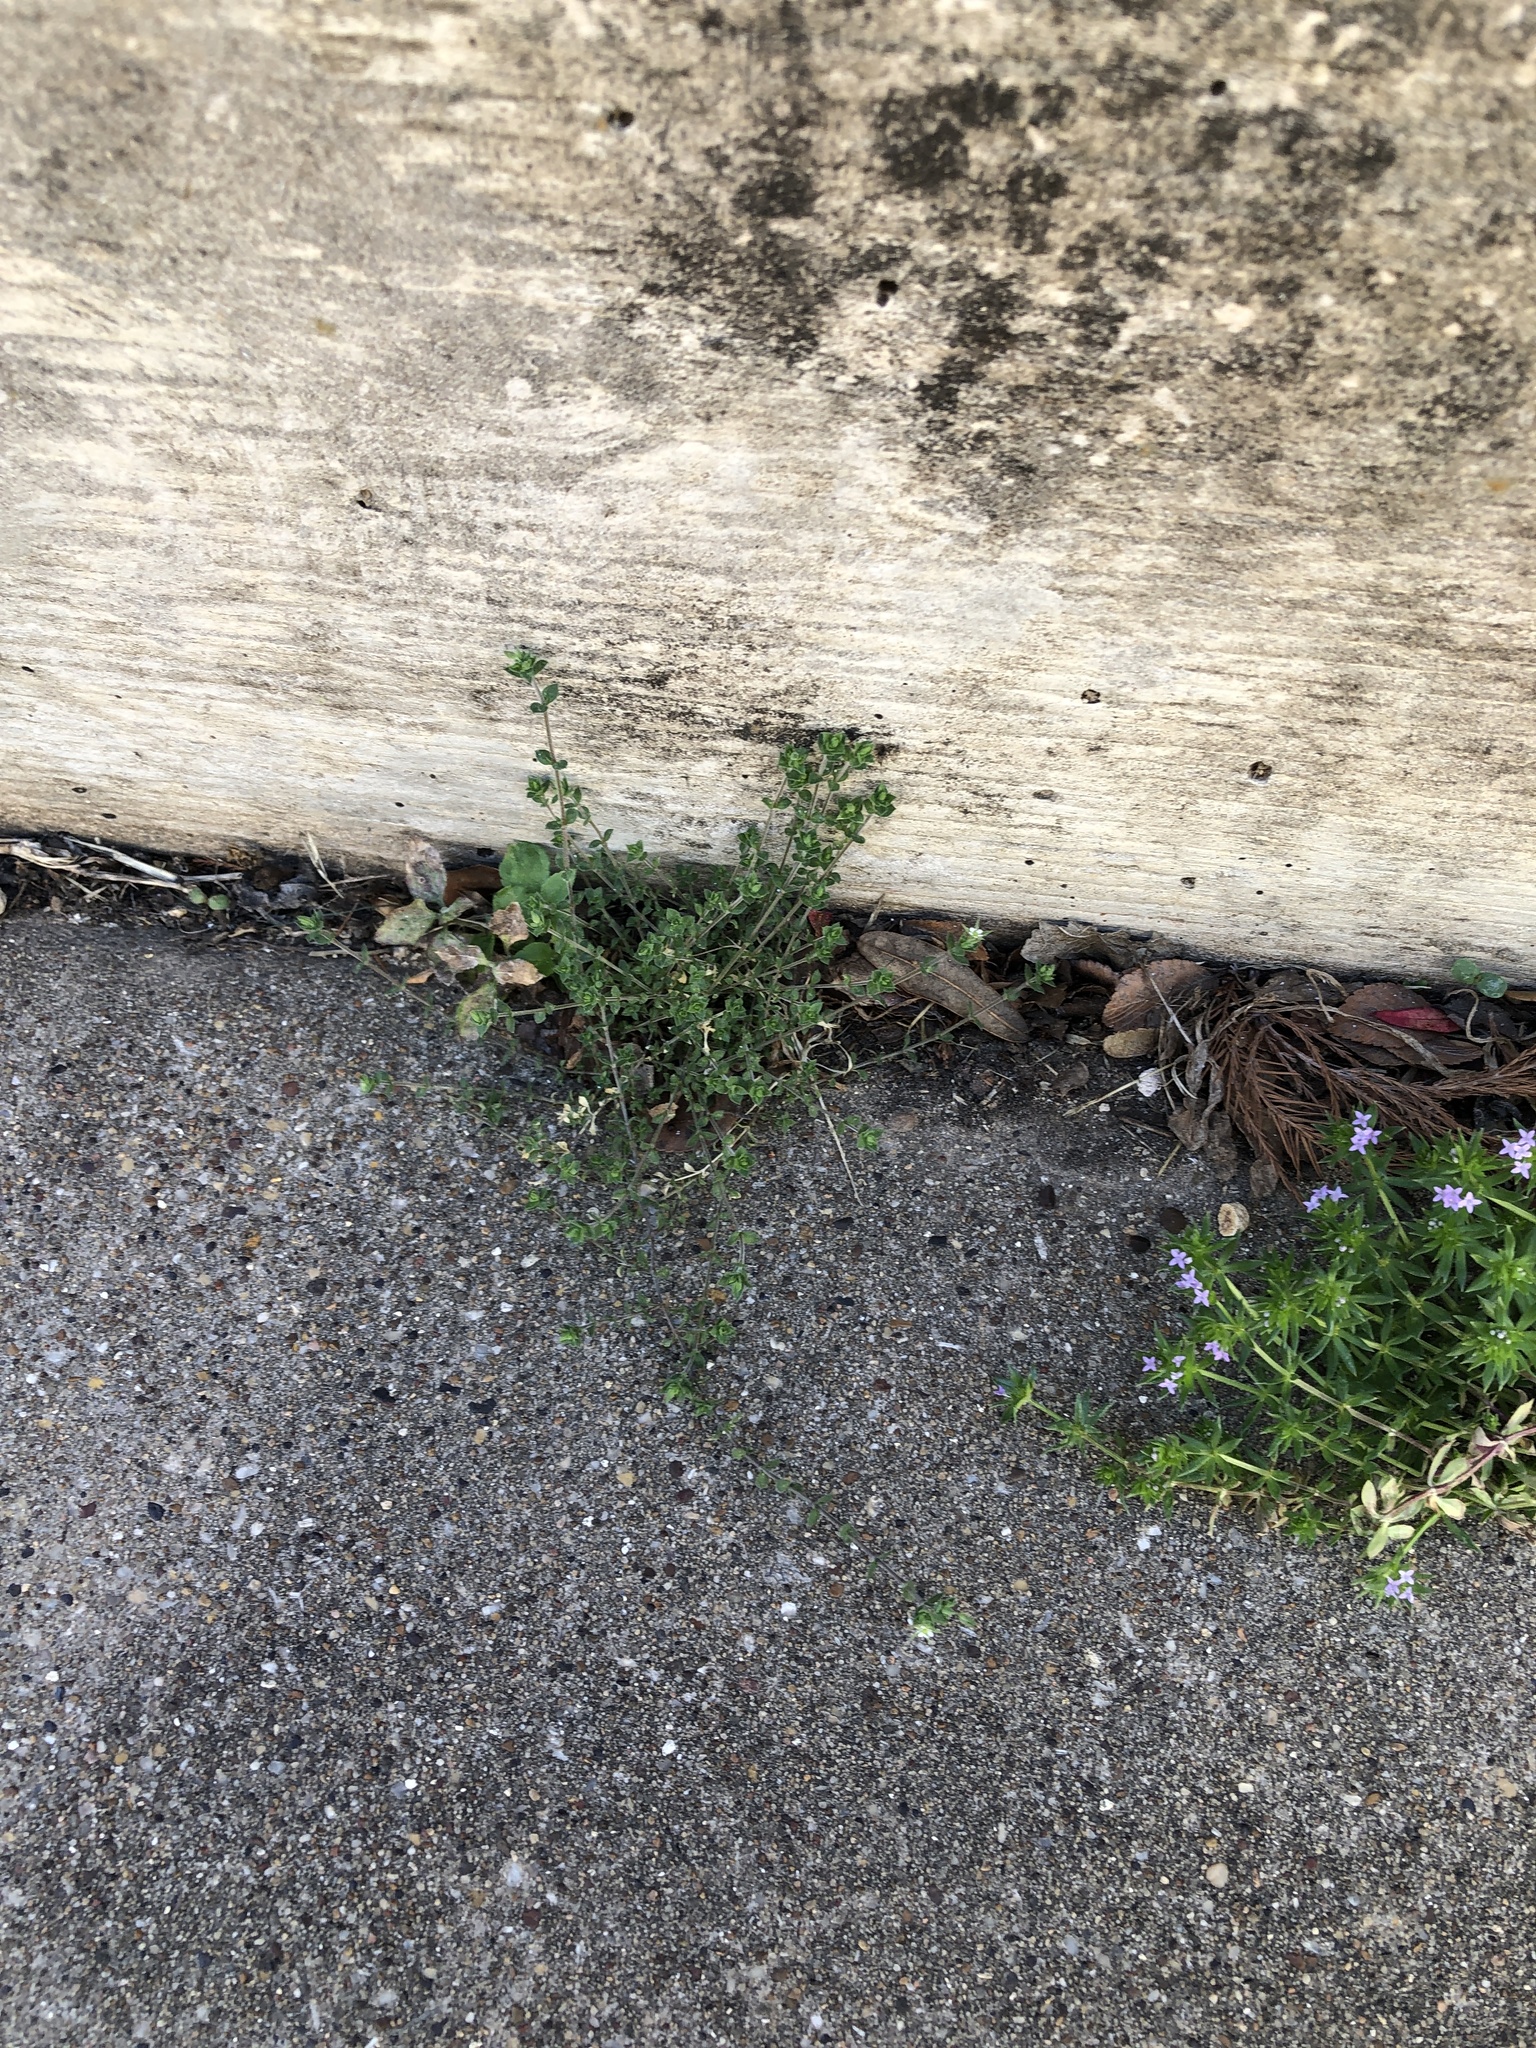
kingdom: Plantae
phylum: Tracheophyta
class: Magnoliopsida
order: Caryophyllales
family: Caryophyllaceae
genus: Arenaria
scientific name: Arenaria serpyllifolia
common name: Thyme-leaved sandwort
